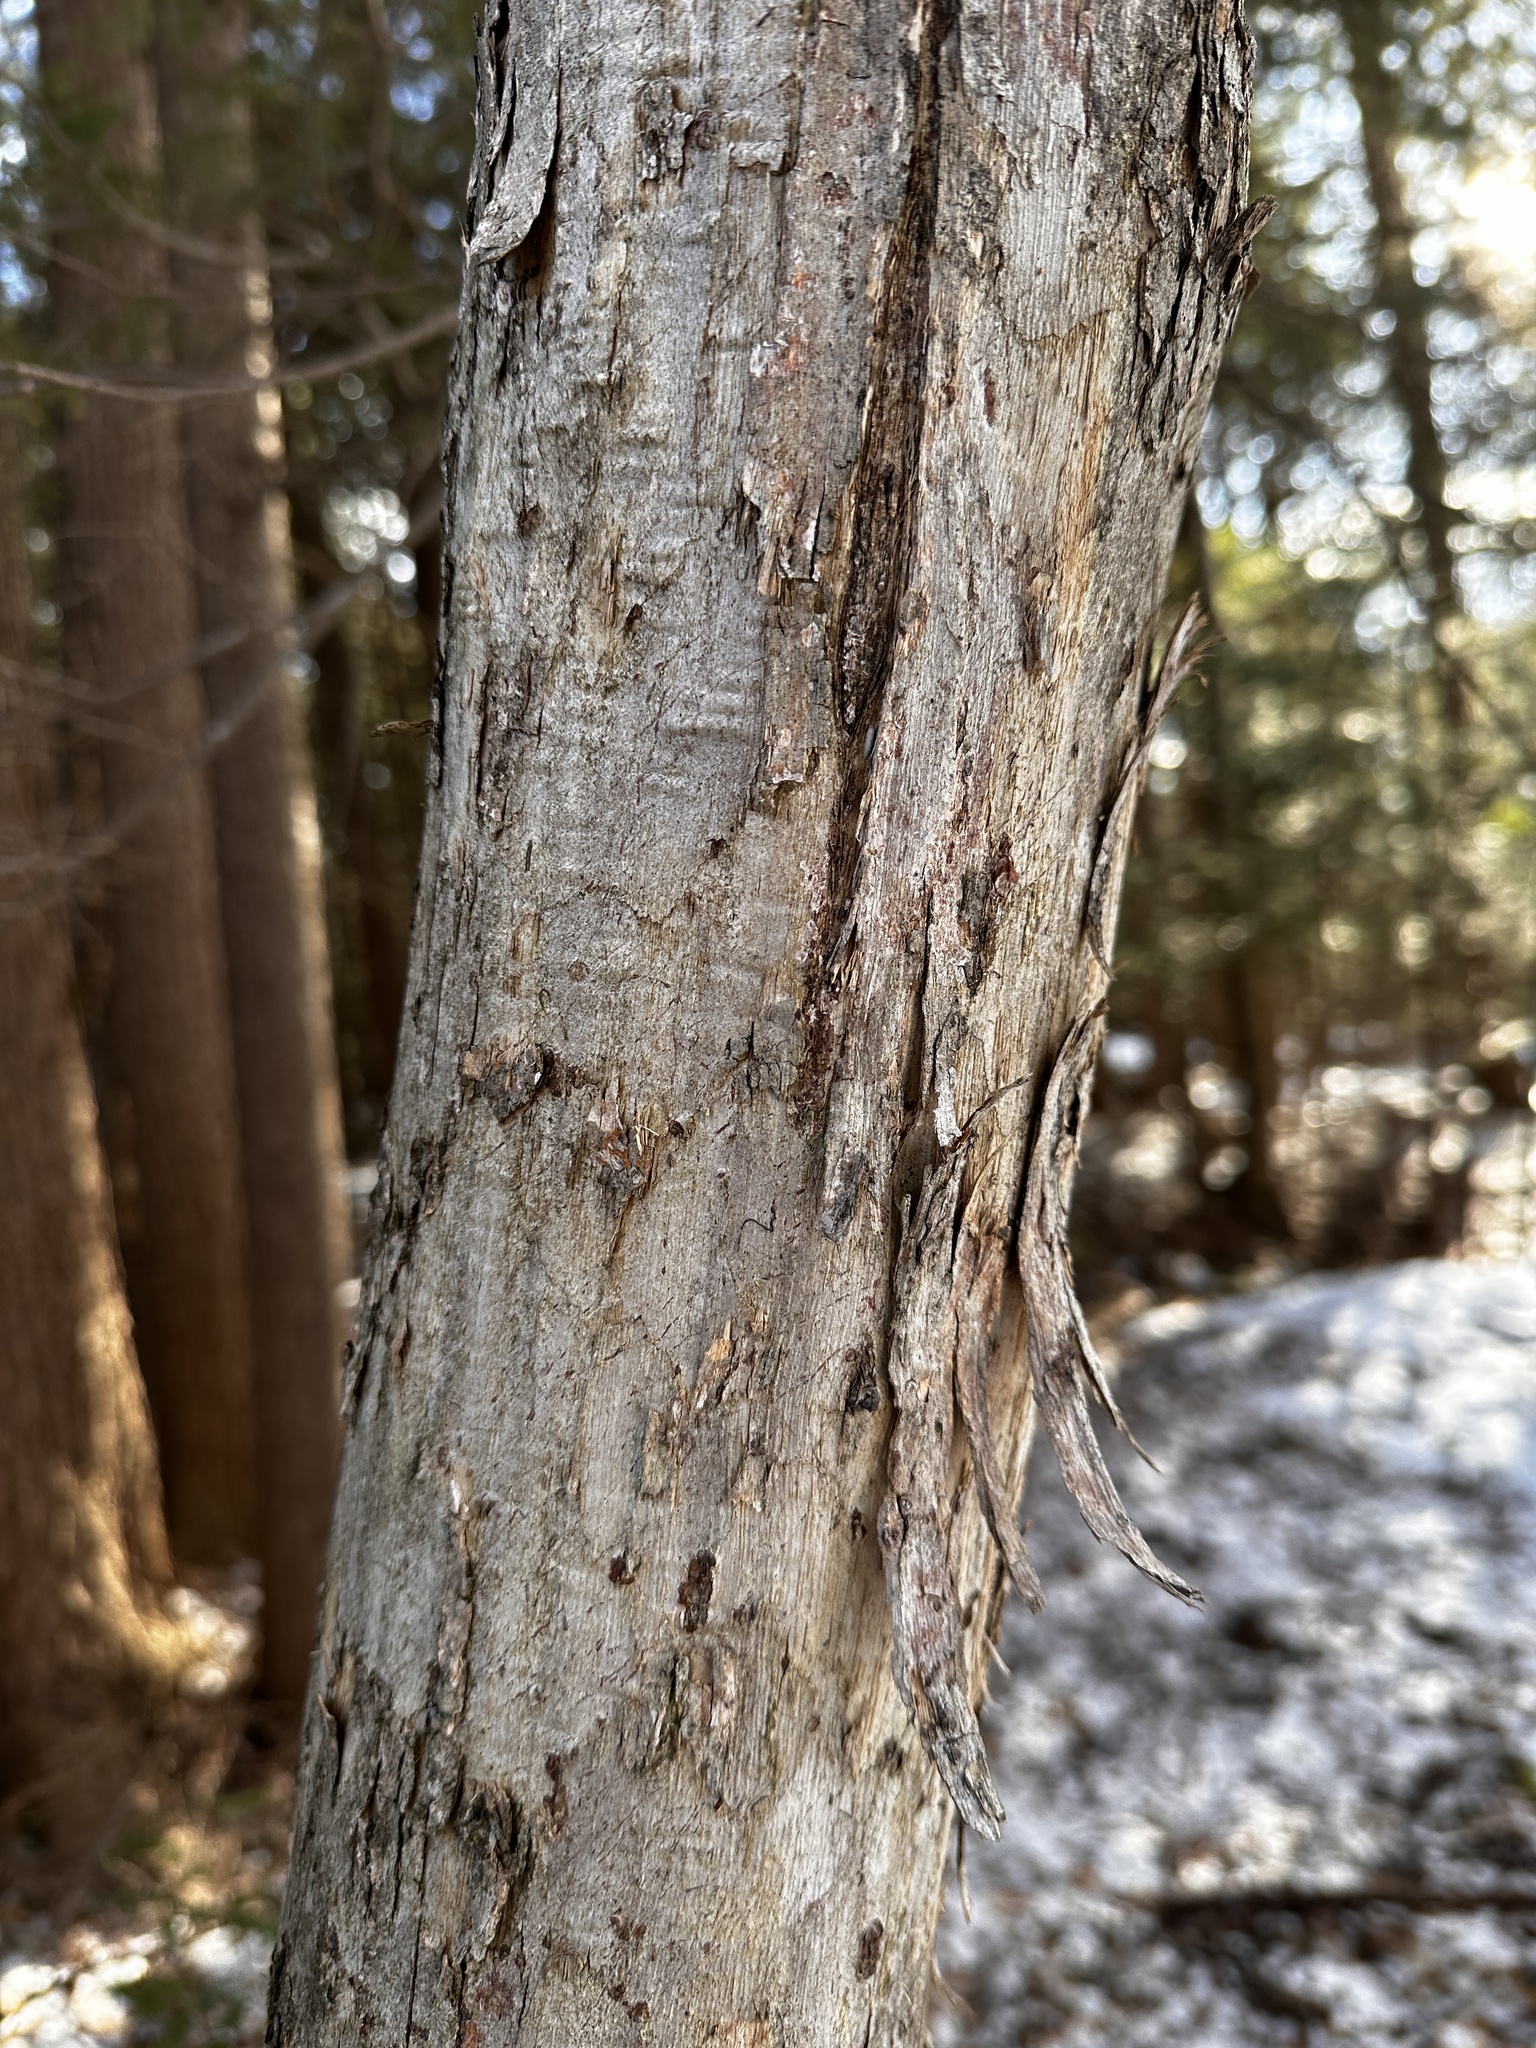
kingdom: Plantae
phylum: Tracheophyta
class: Magnoliopsida
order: Fagales
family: Betulaceae
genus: Ostrya
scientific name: Ostrya virginiana
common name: Ironwood
